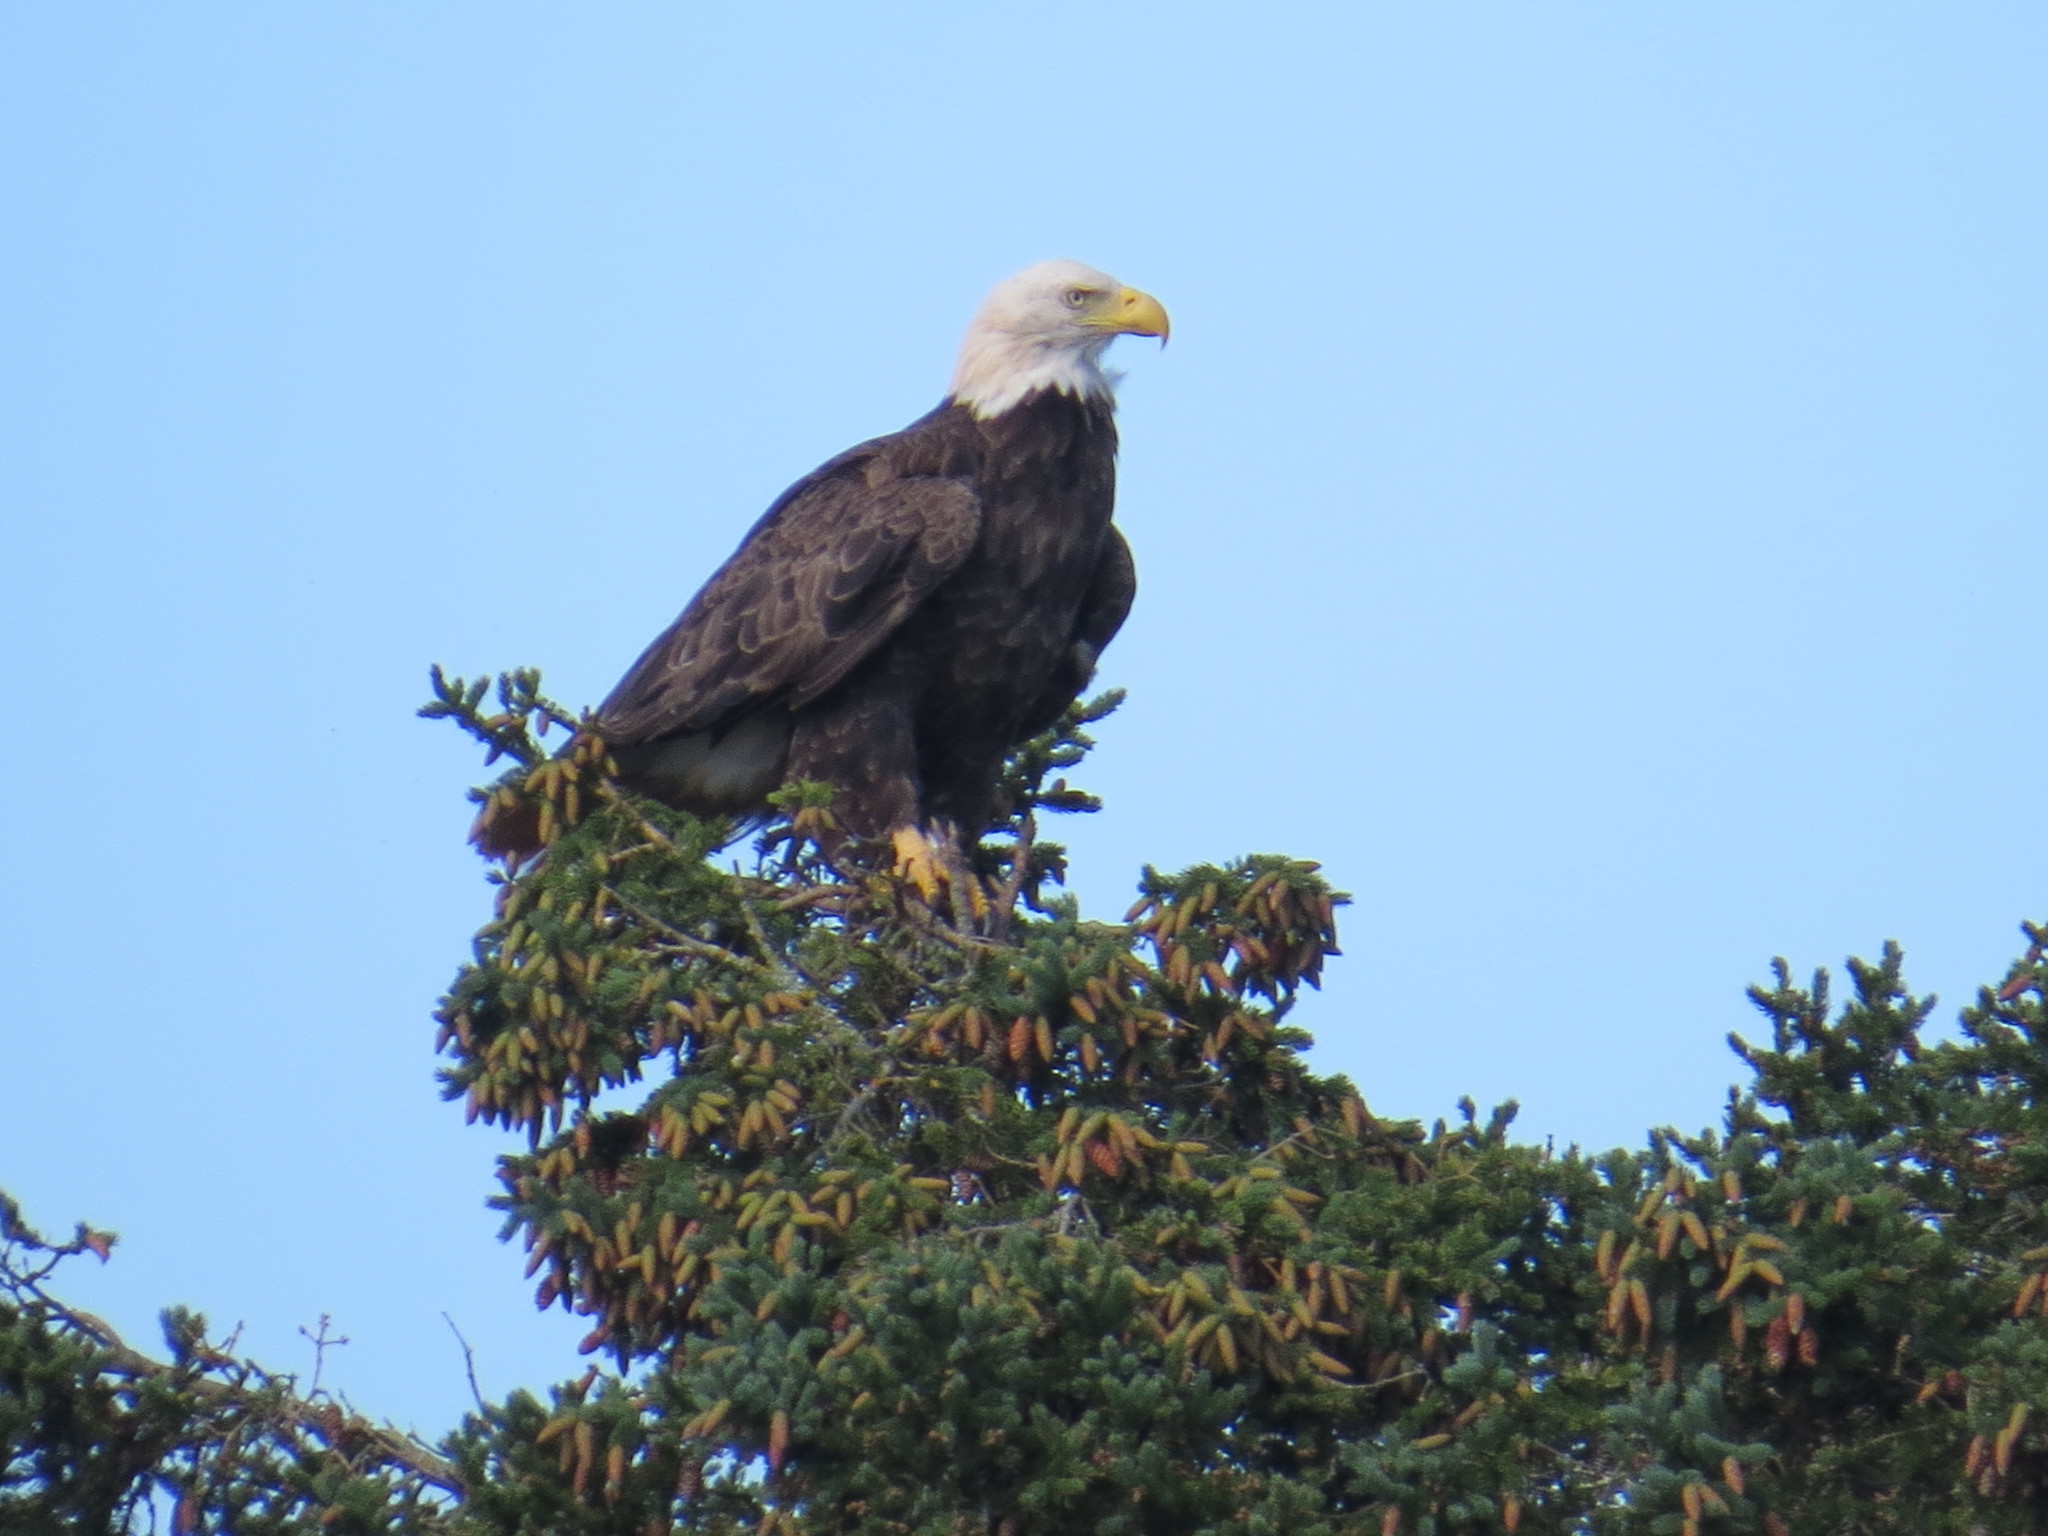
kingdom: Animalia
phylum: Chordata
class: Aves
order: Accipitriformes
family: Accipitridae
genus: Haliaeetus
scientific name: Haliaeetus leucocephalus
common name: Bald eagle
